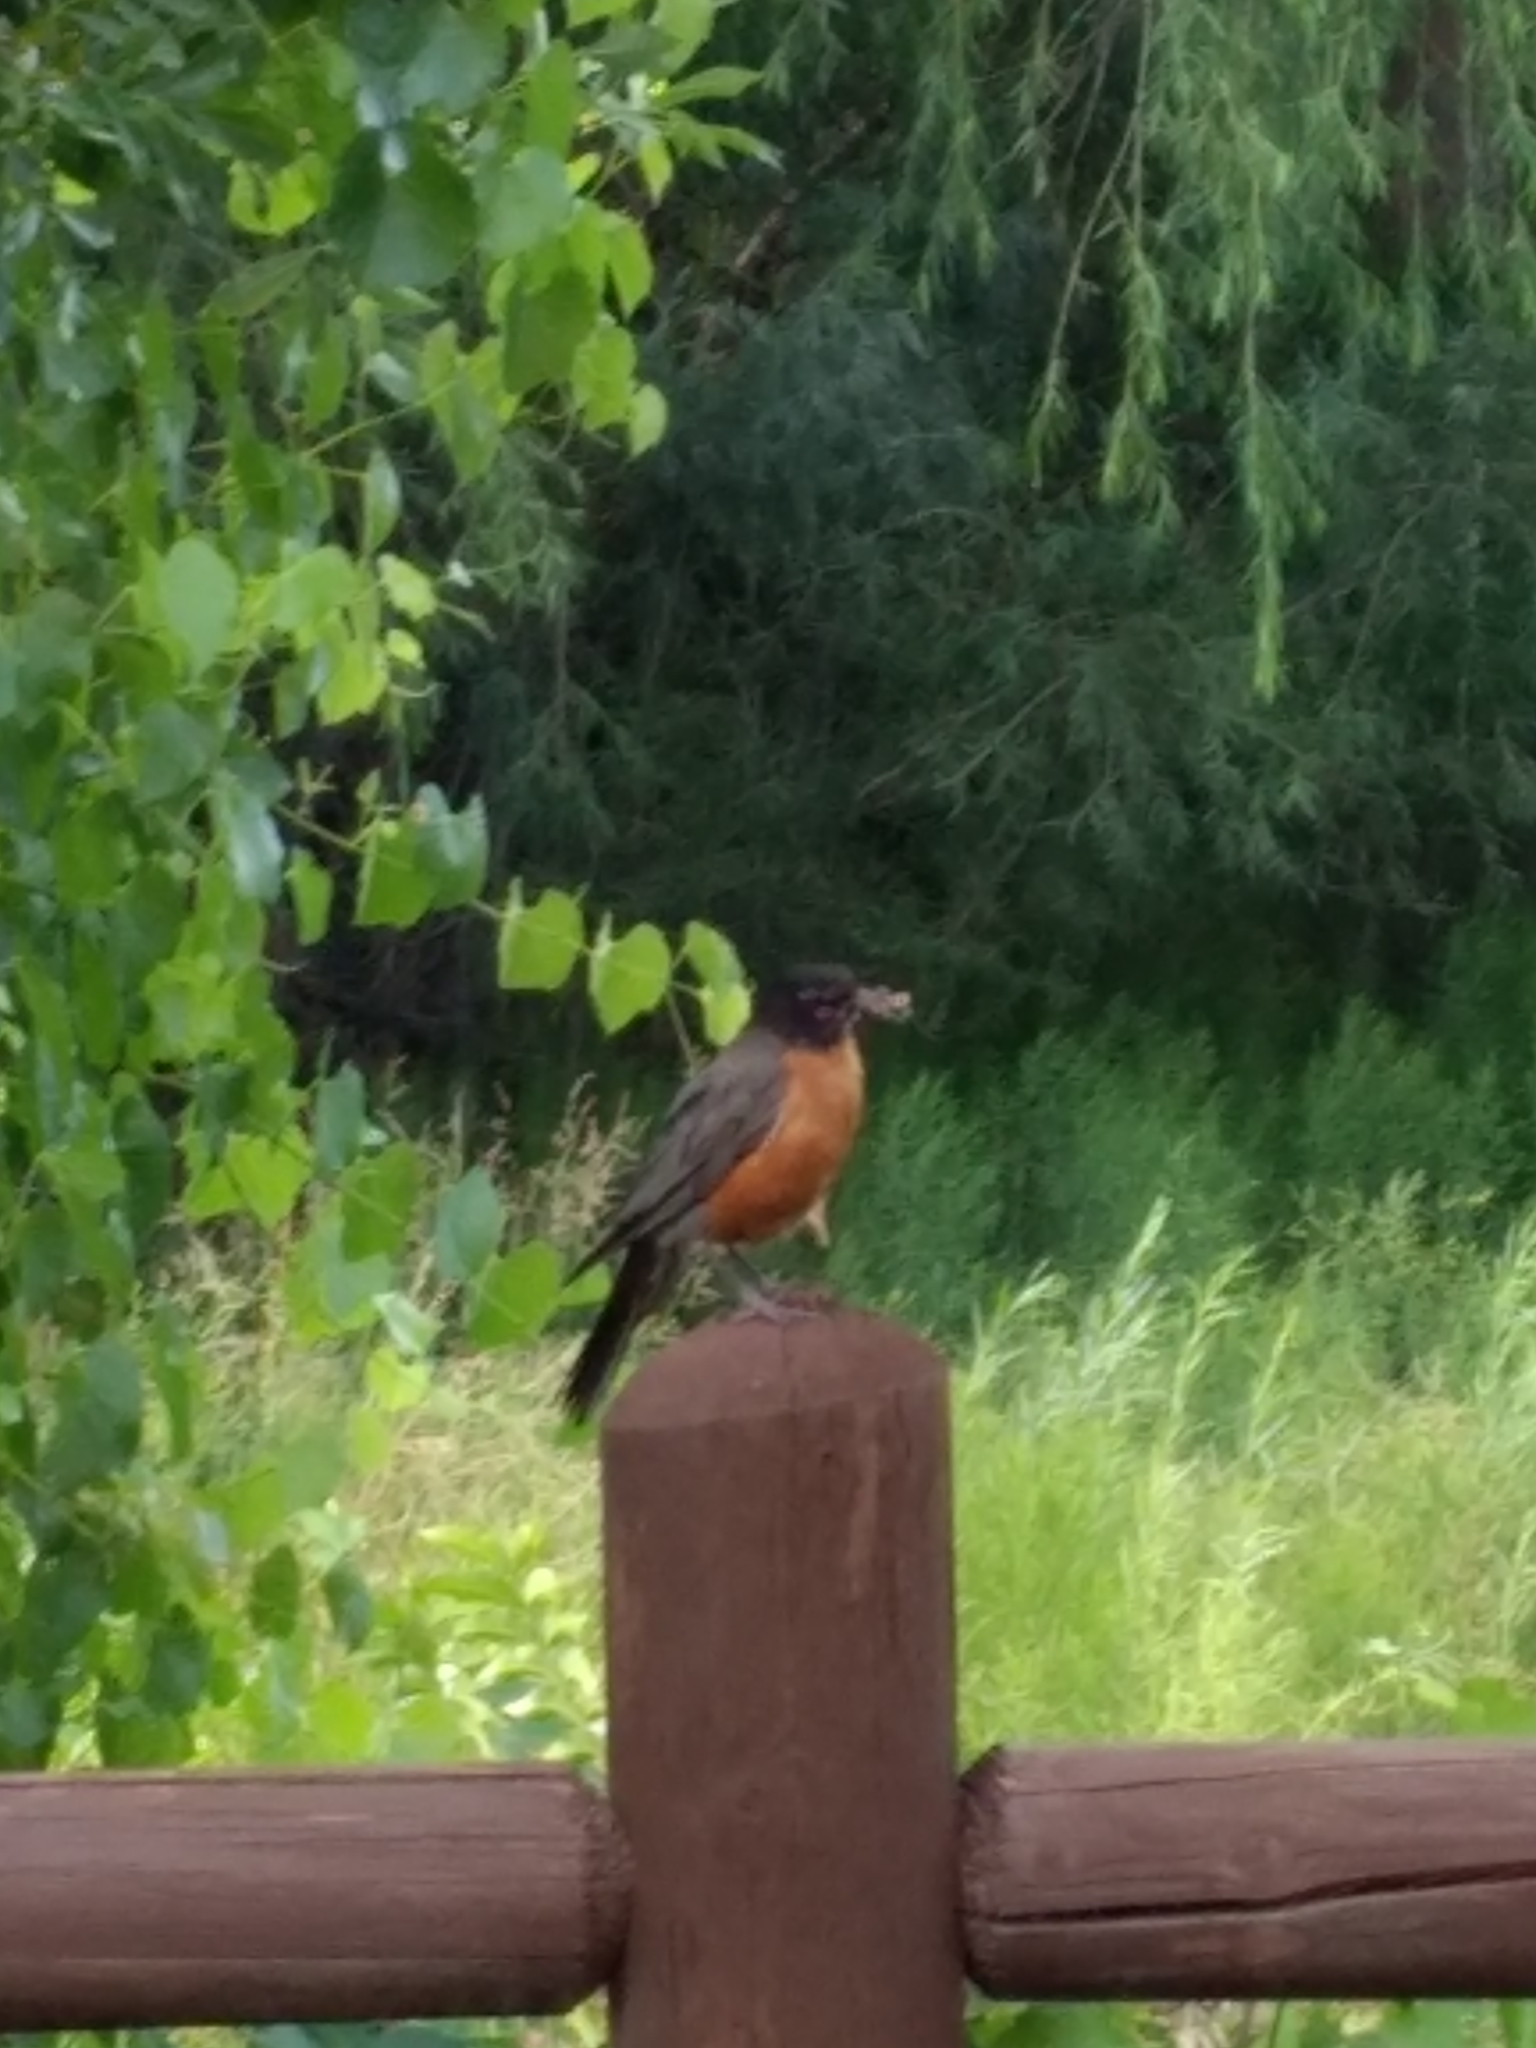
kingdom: Animalia
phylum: Chordata
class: Aves
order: Passeriformes
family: Turdidae
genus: Turdus
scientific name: Turdus migratorius
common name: American robin
